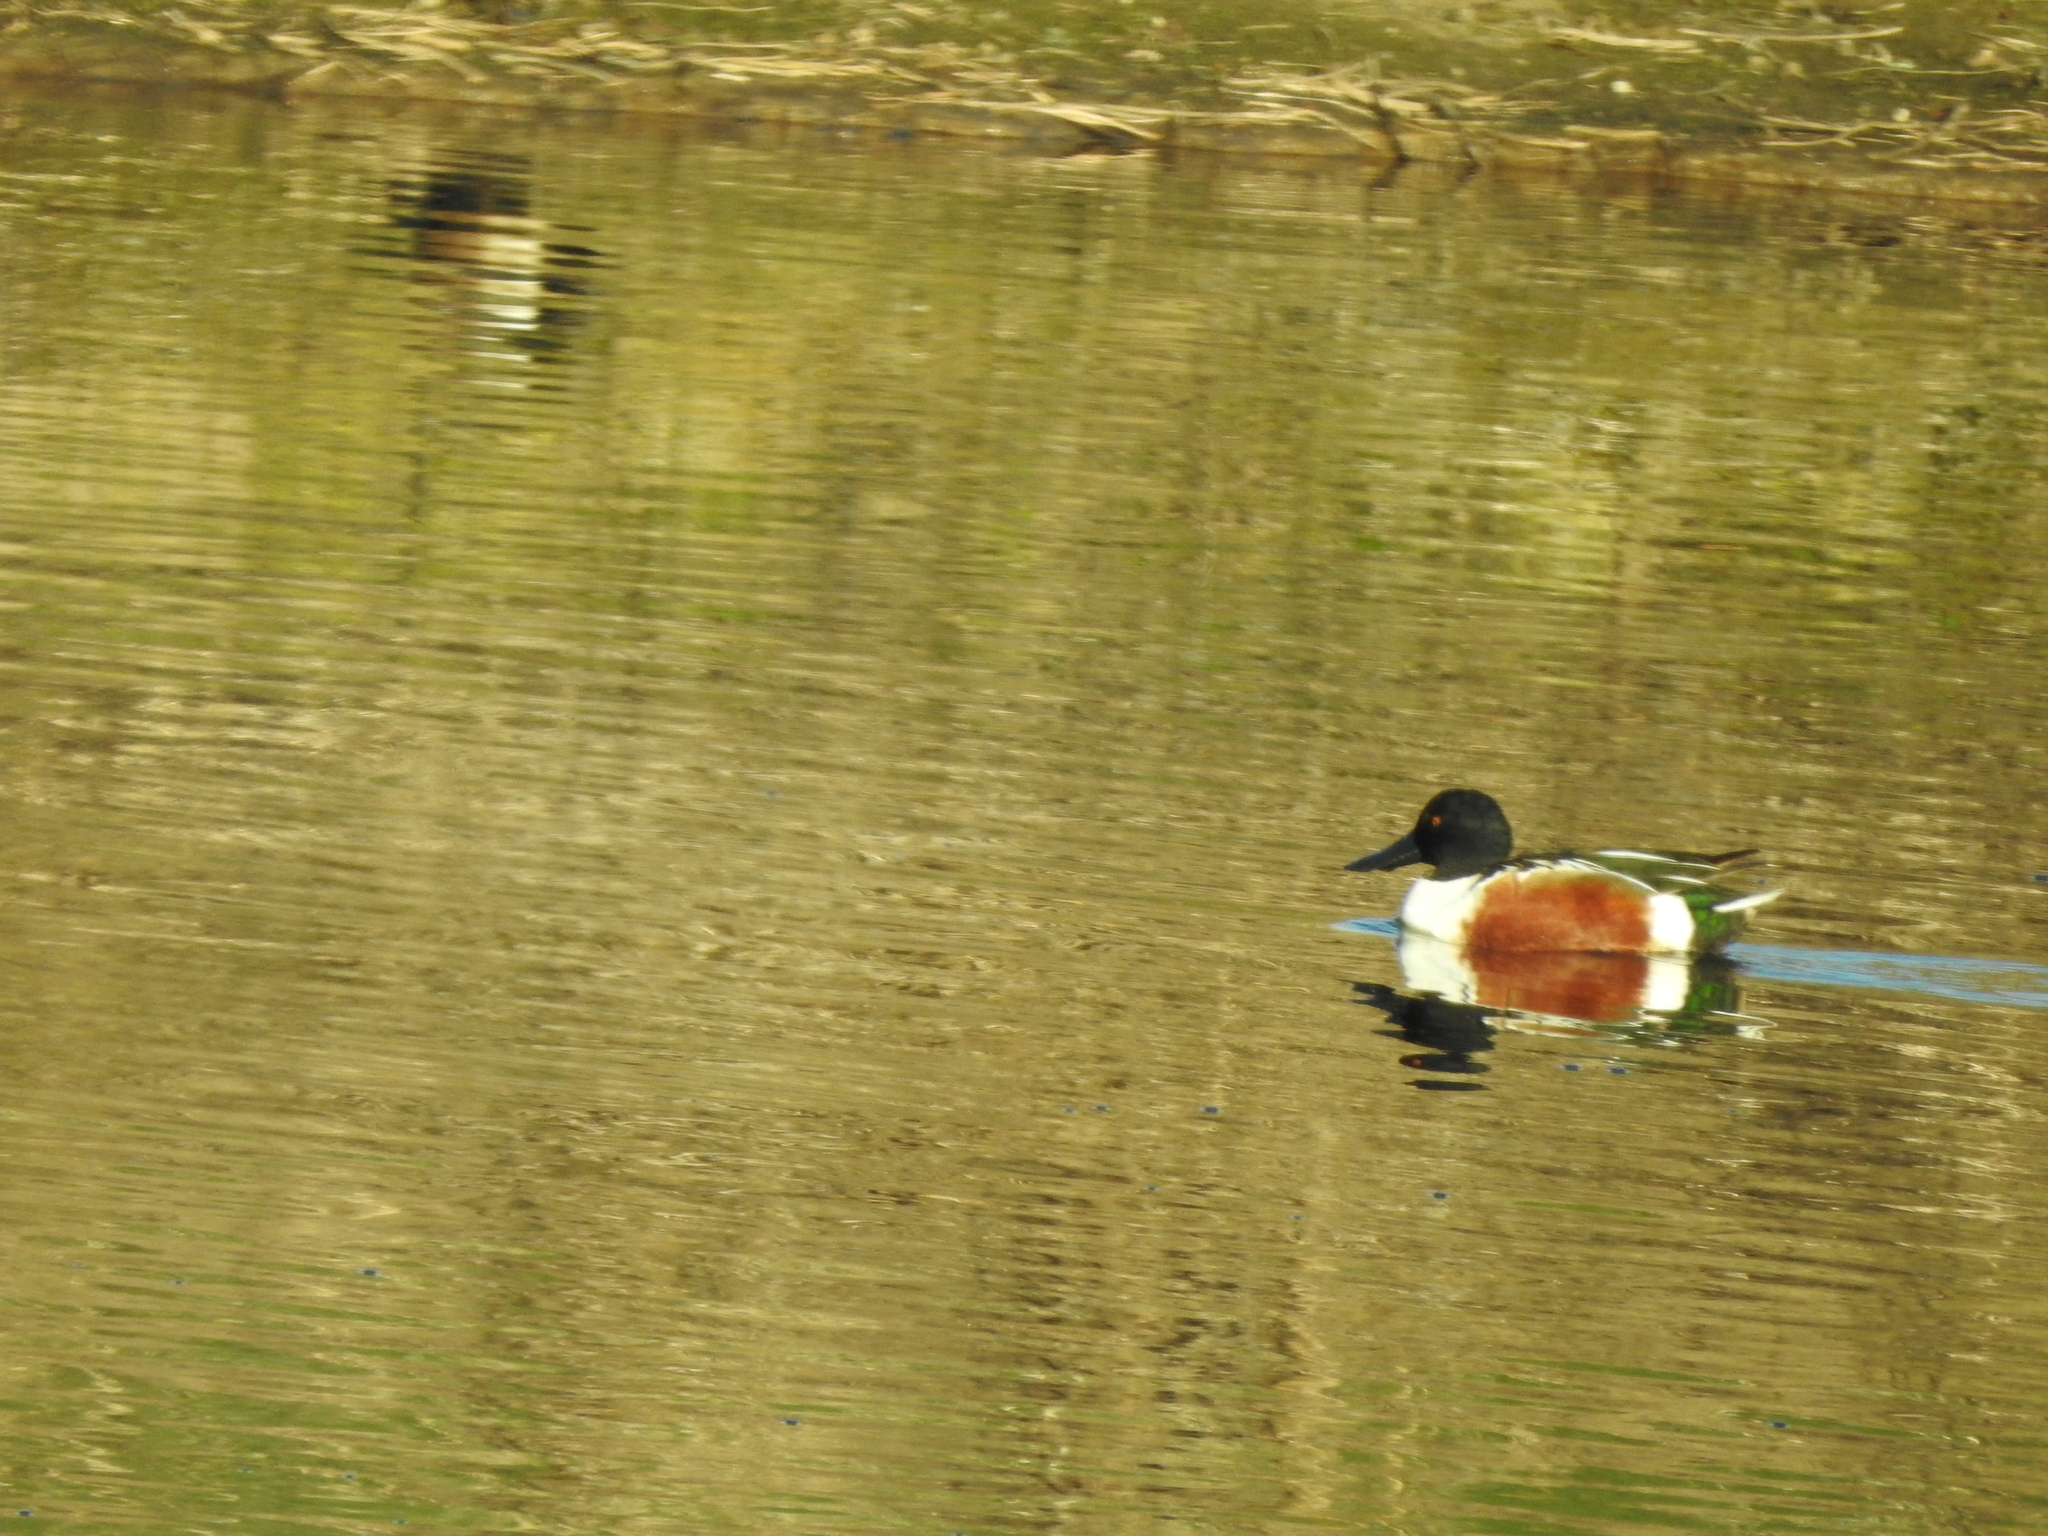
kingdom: Animalia
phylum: Chordata
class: Aves
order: Anseriformes
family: Anatidae
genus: Spatula
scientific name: Spatula clypeata
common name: Northern shoveler
